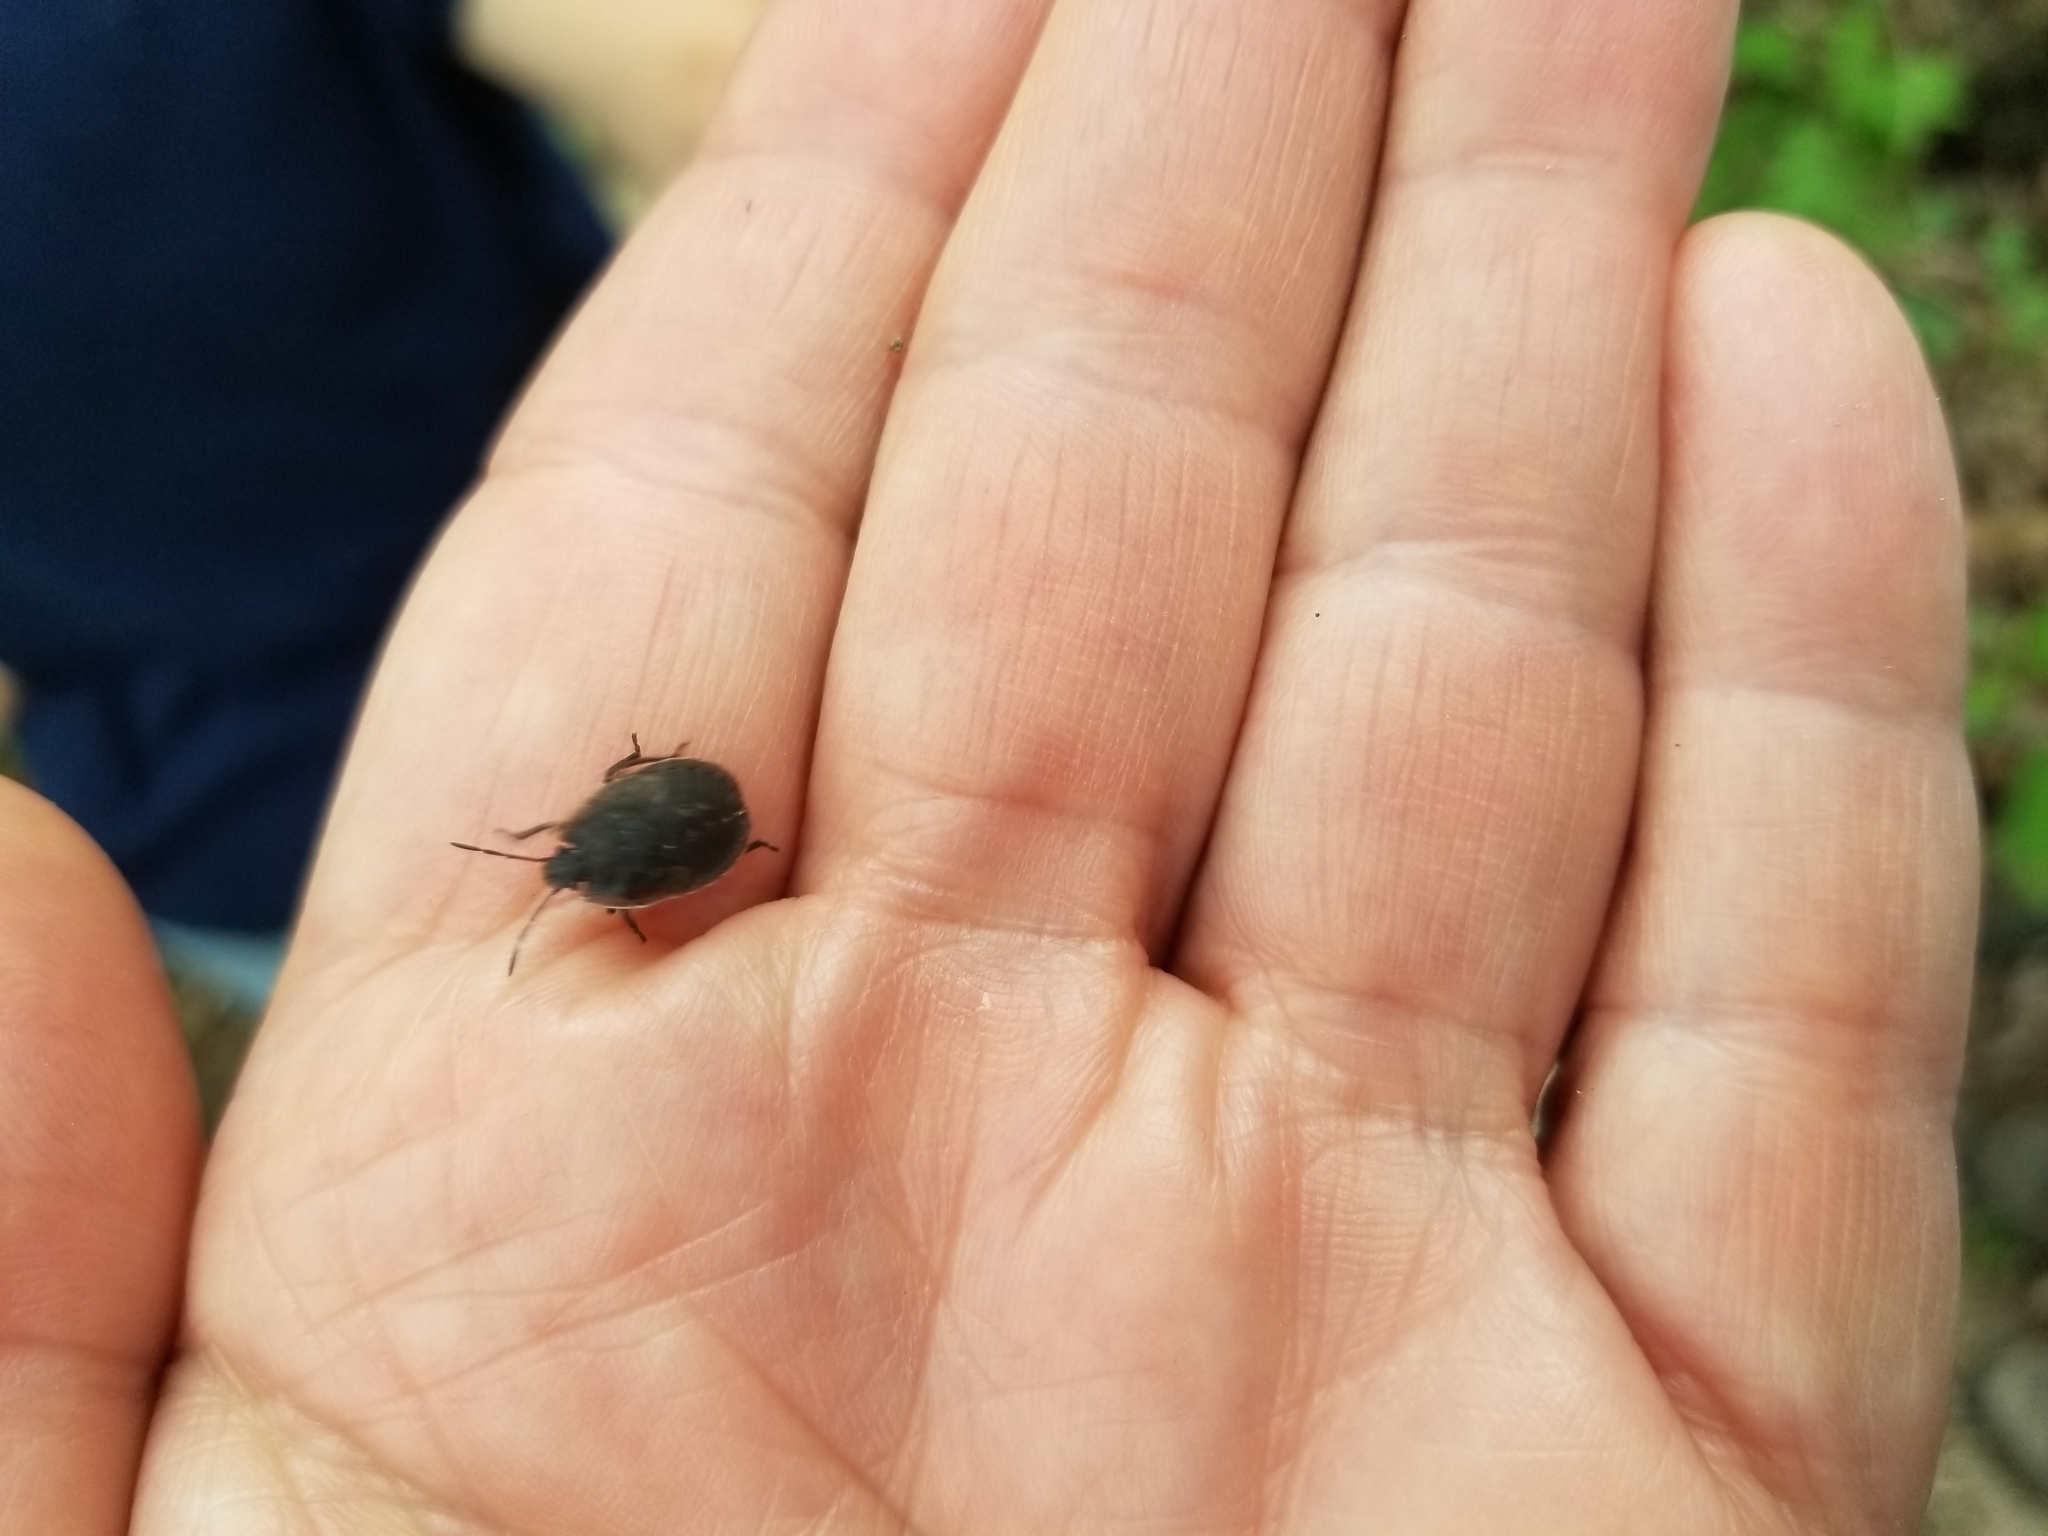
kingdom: Animalia
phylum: Arthropoda
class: Insecta
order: Hemiptera
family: Pentatomidae
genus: Menecles
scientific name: Menecles insertus
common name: Elf shoe stink bug
